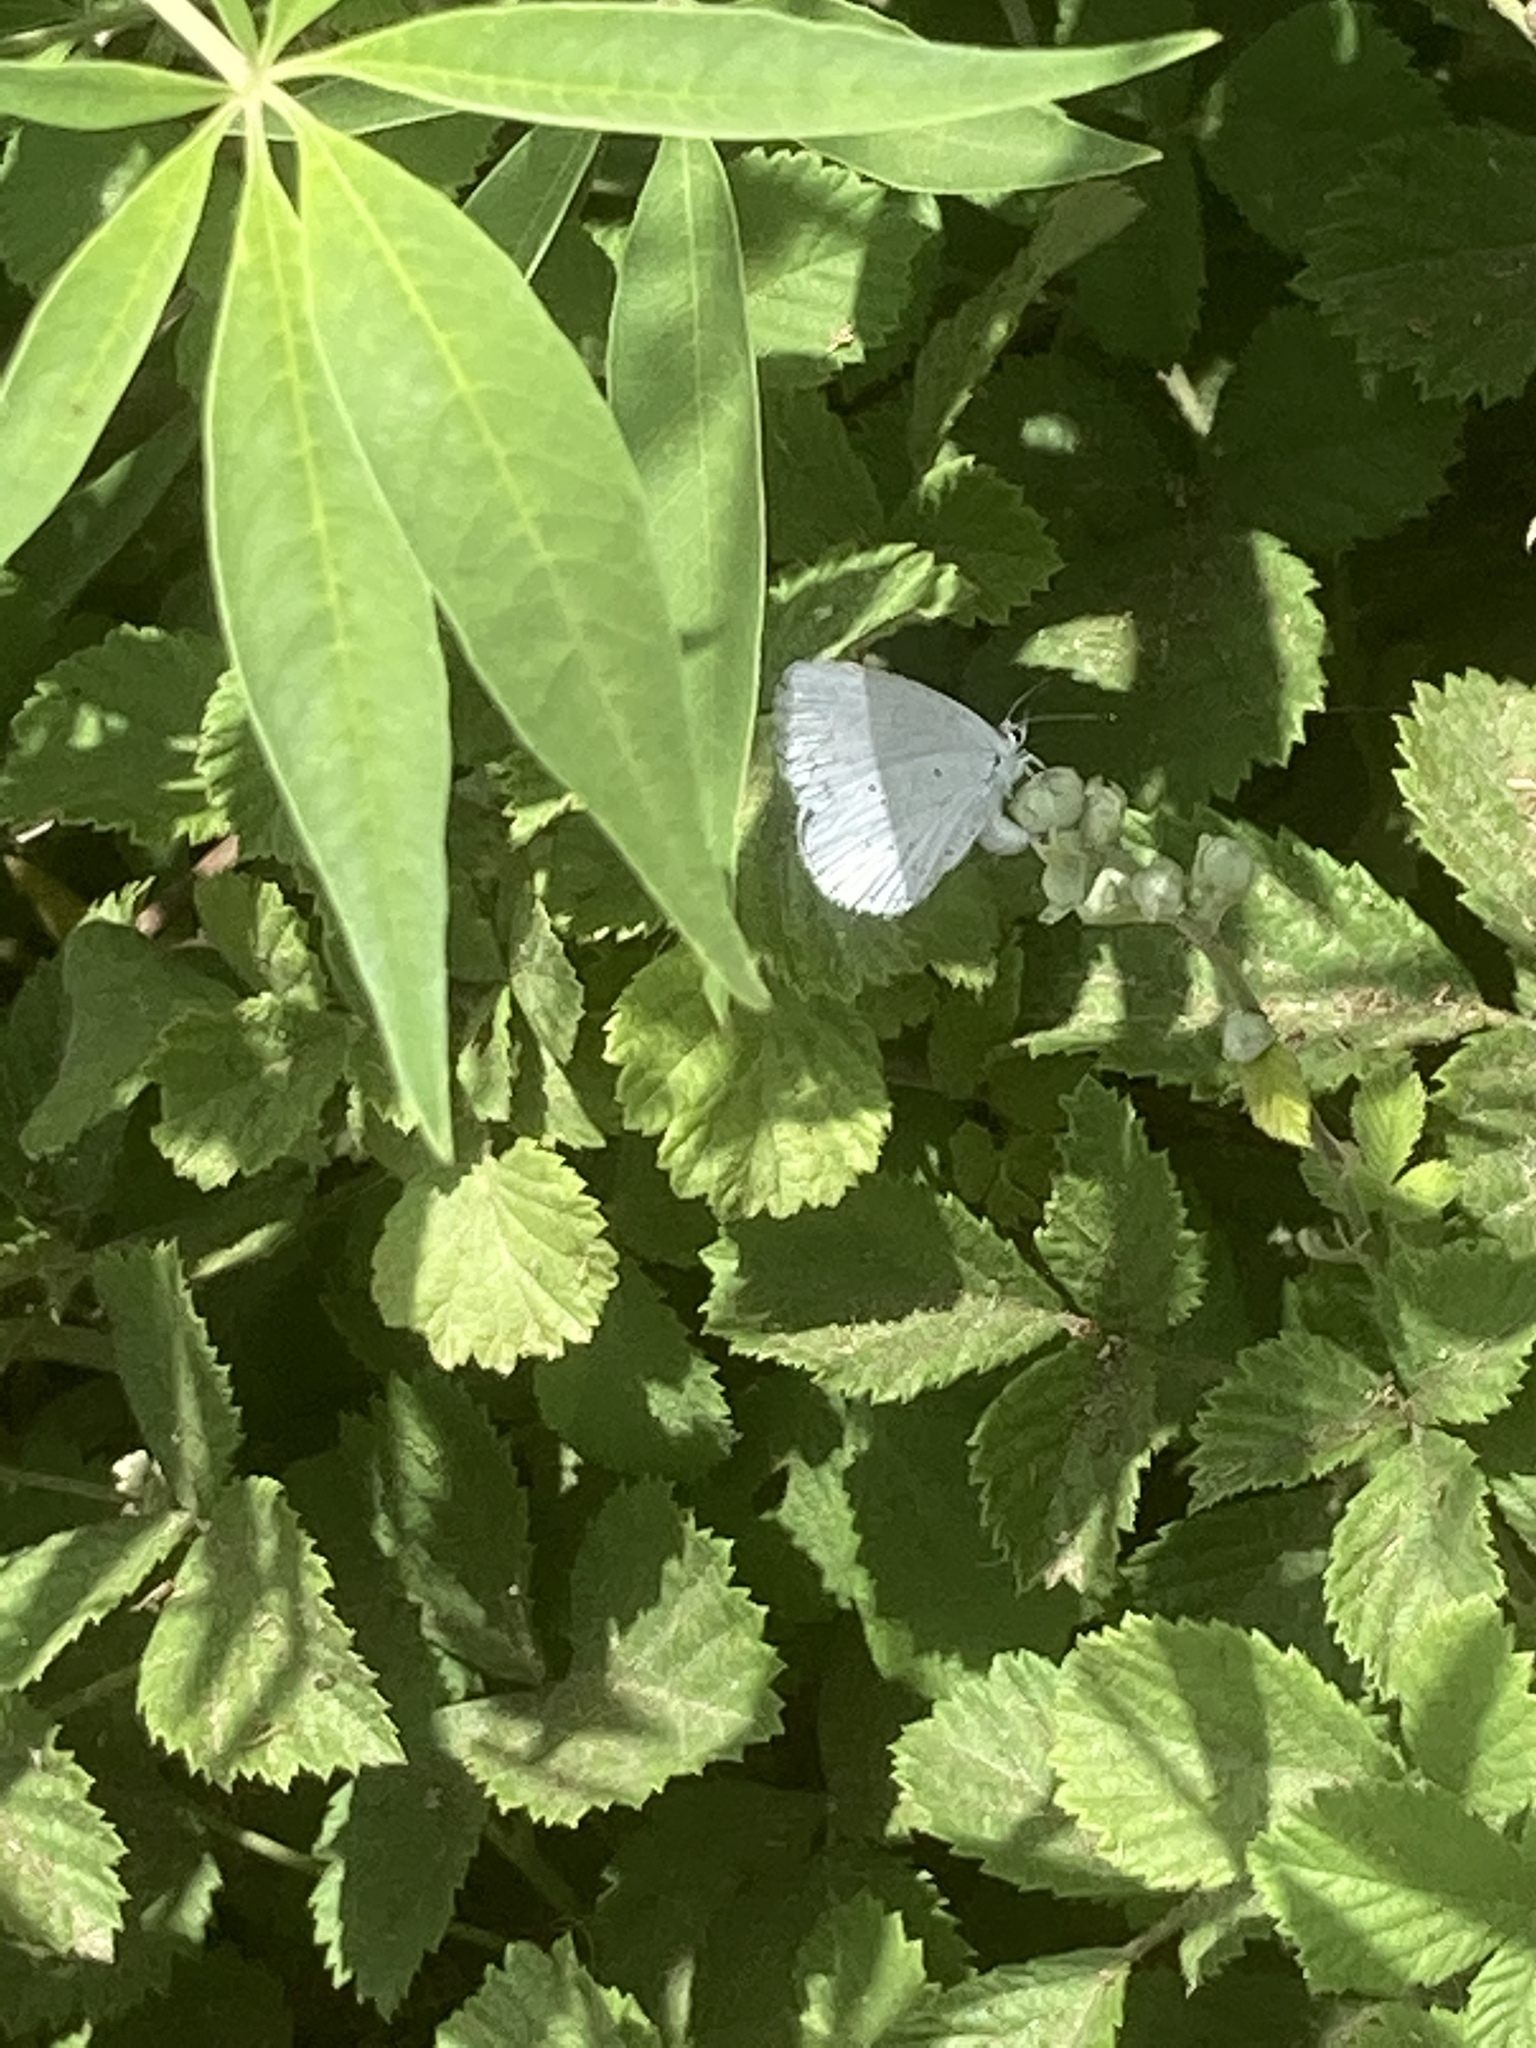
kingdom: Animalia
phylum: Arthropoda
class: Insecta
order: Lepidoptera
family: Lycaenidae
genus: Celastrina
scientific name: Celastrina argiolus
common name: Holly blue
